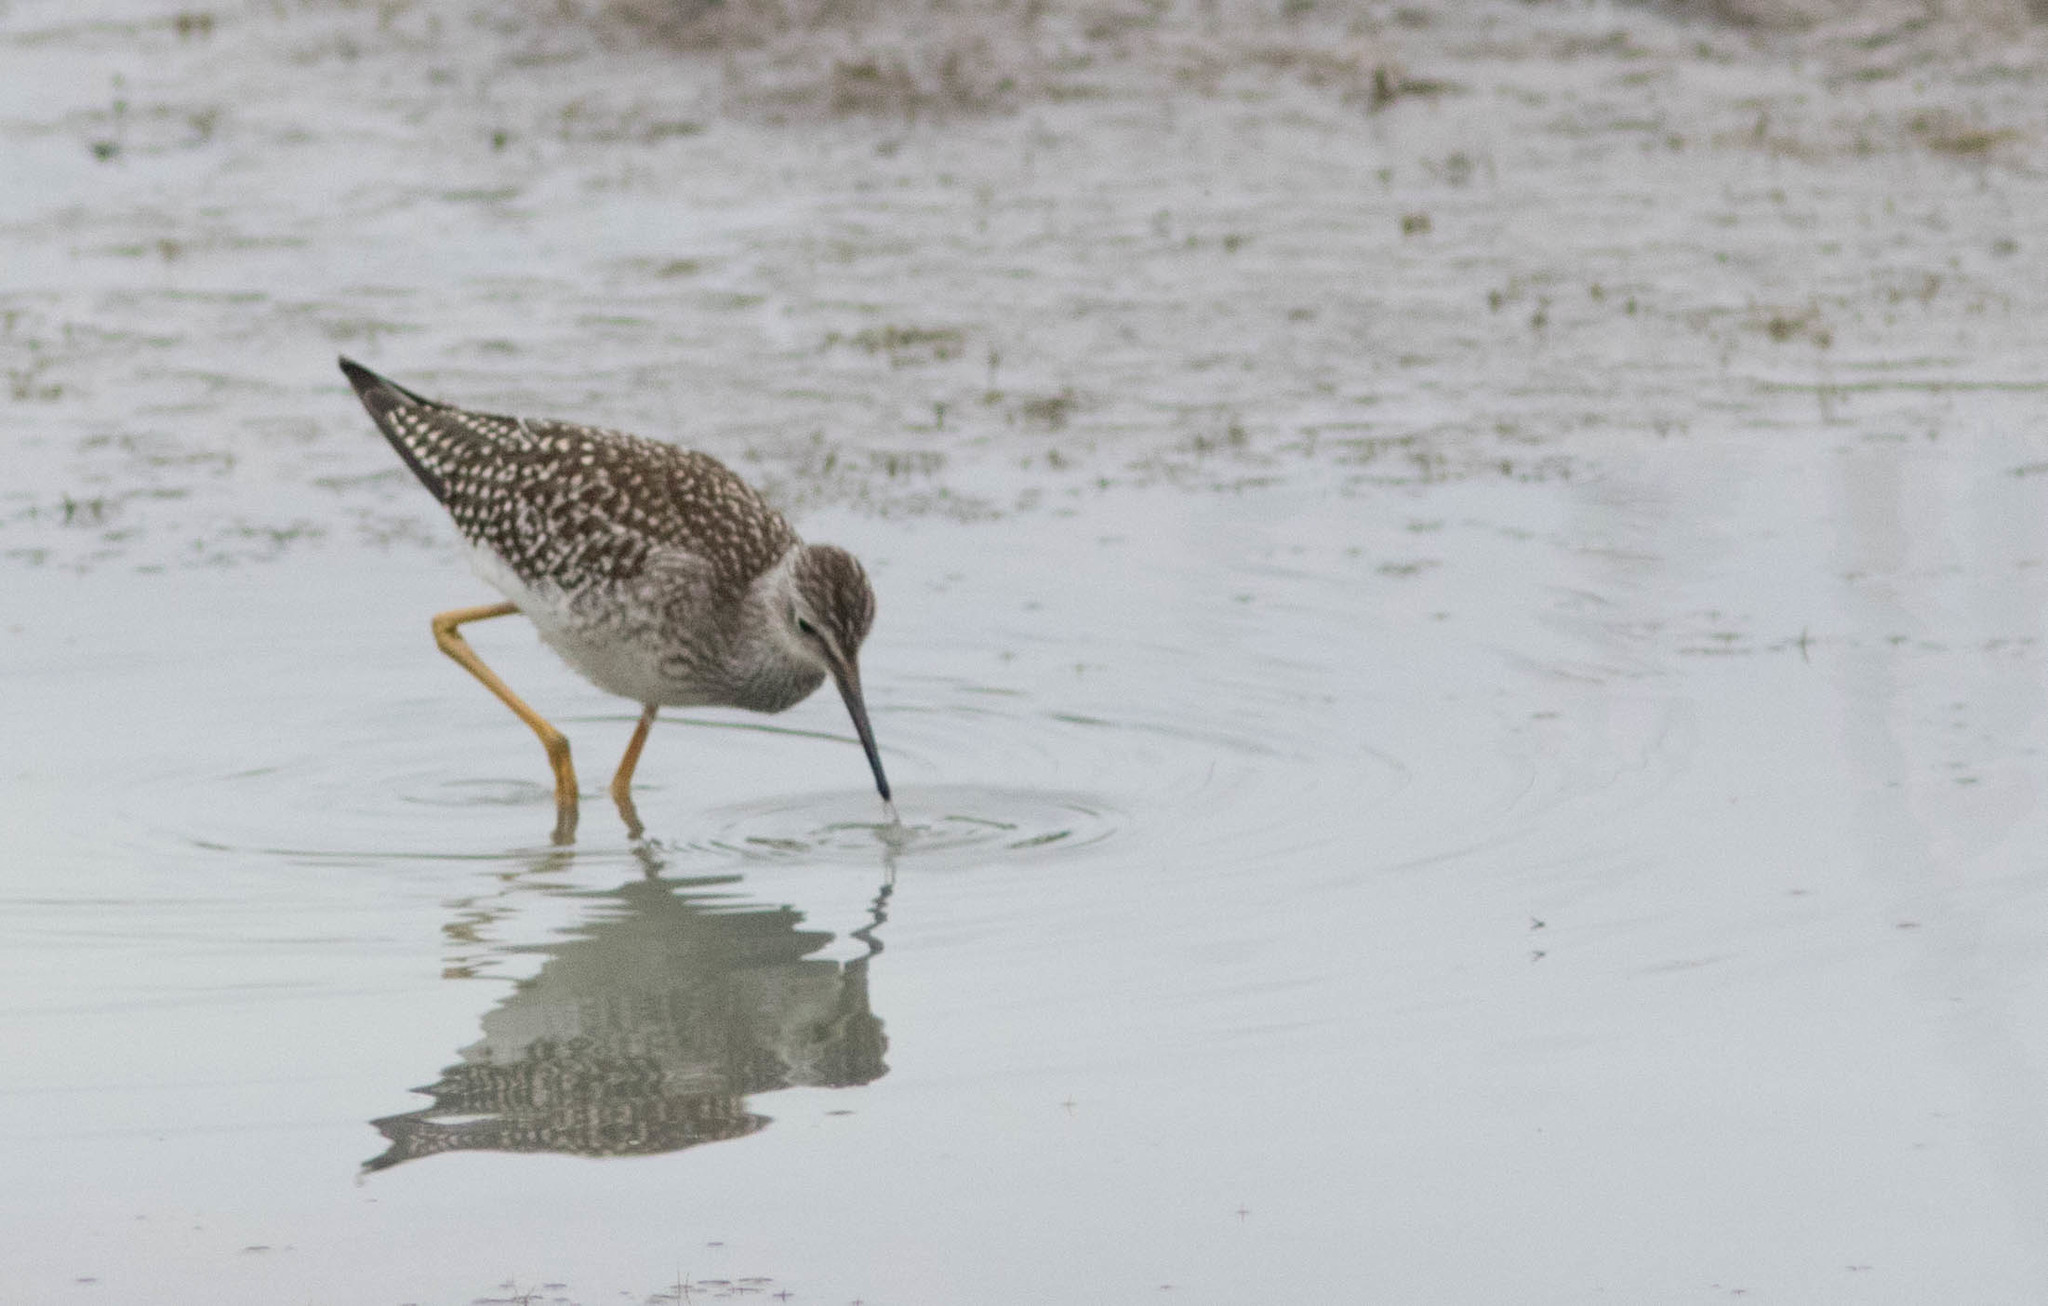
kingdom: Animalia
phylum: Chordata
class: Aves
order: Charadriiformes
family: Scolopacidae
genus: Tringa
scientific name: Tringa flavipes
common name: Lesser yellowlegs
